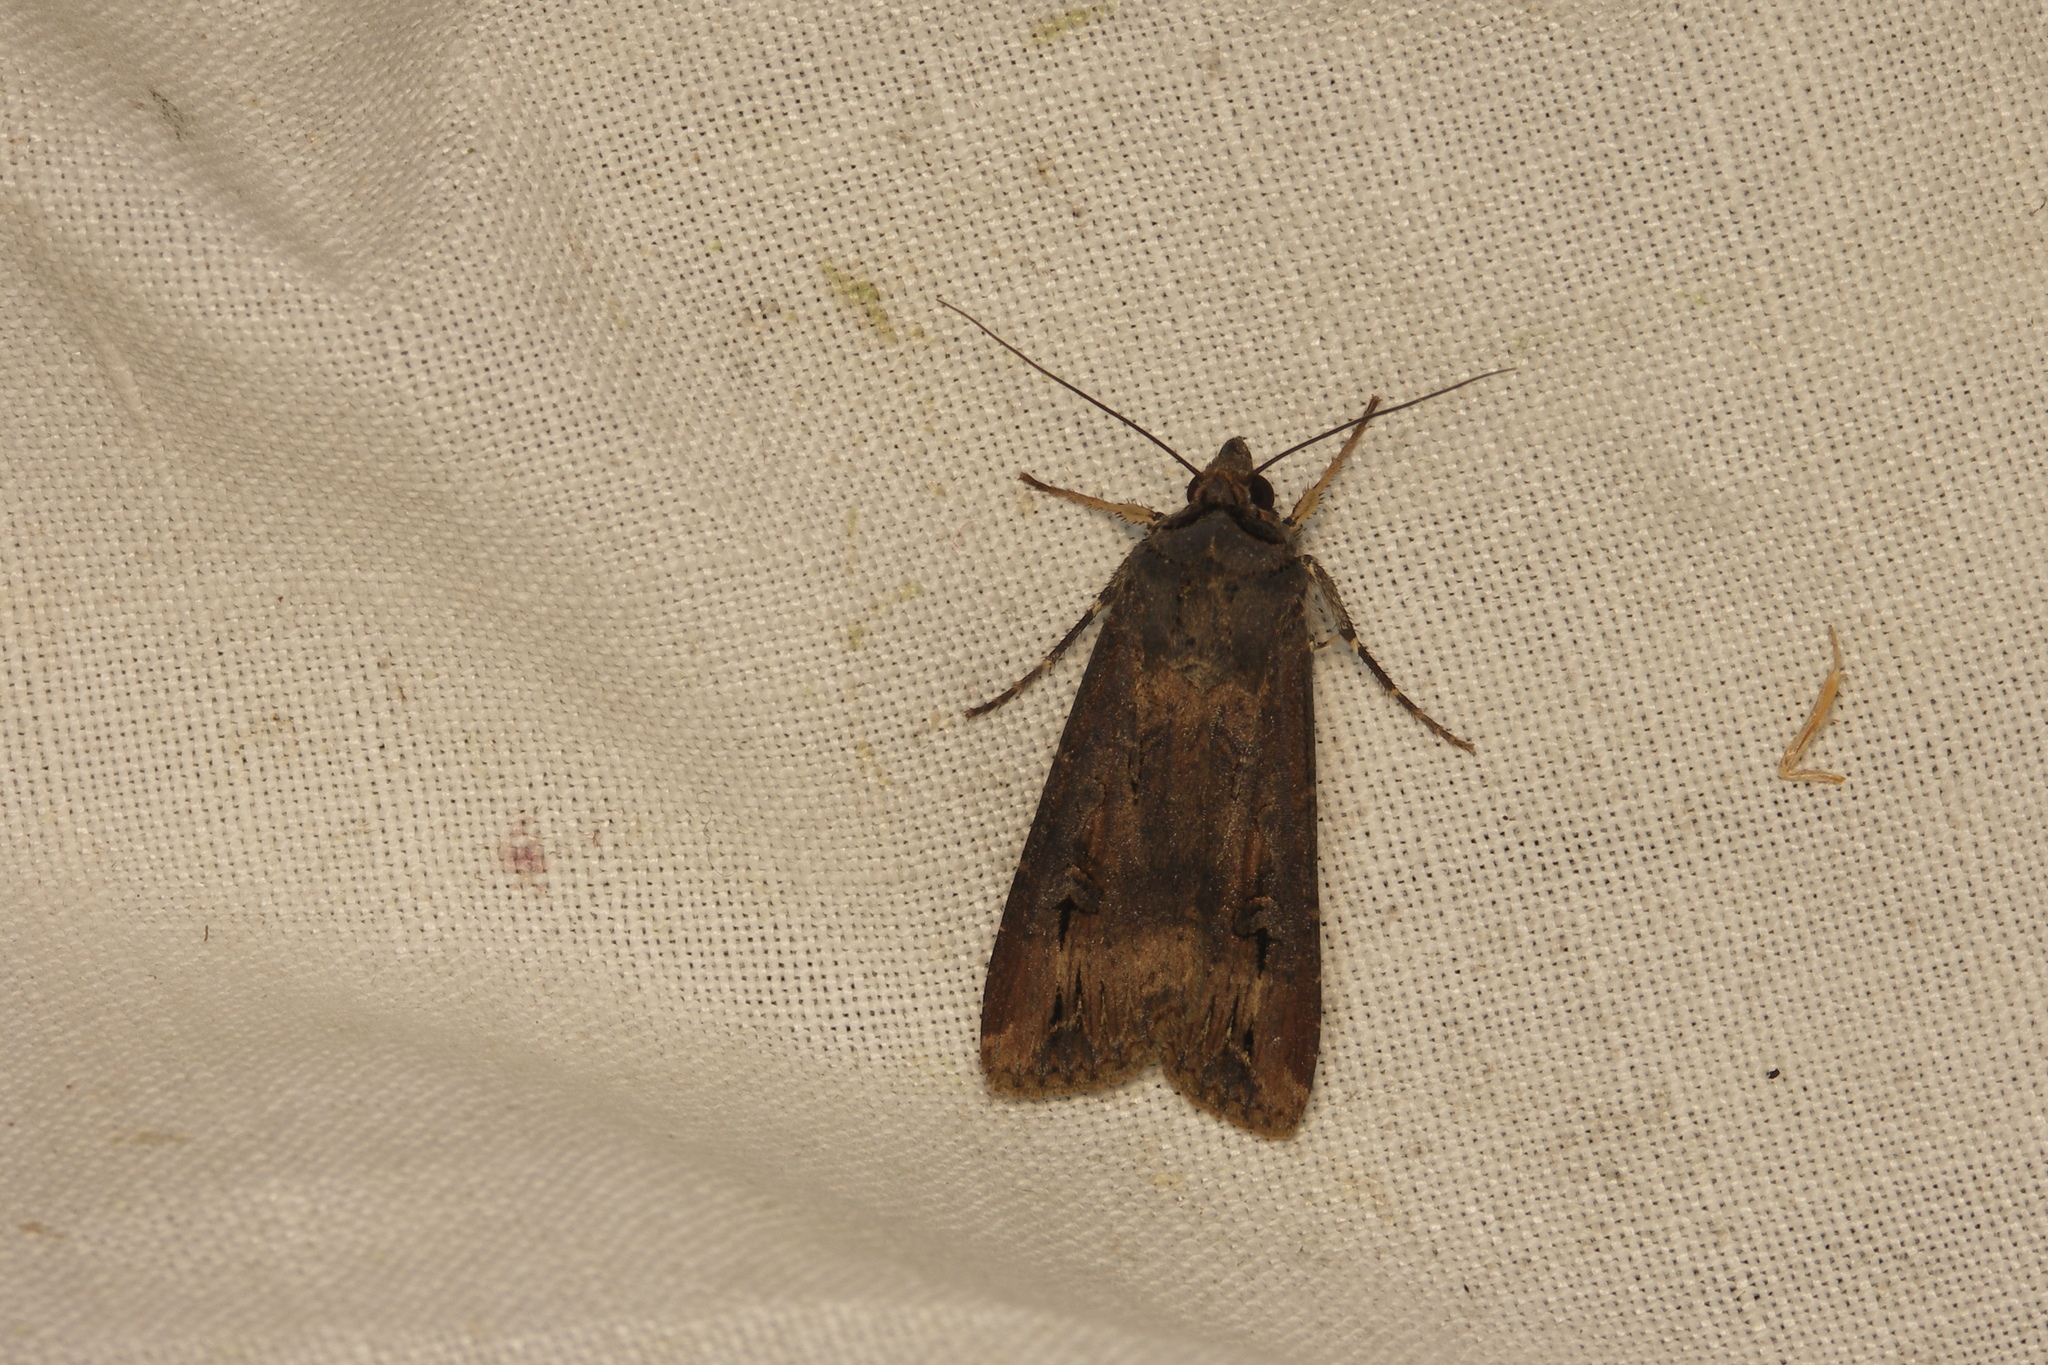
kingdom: Animalia
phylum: Arthropoda
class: Insecta
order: Lepidoptera
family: Noctuidae
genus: Agrotis
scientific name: Agrotis ipsilon
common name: Dark sword-grass
